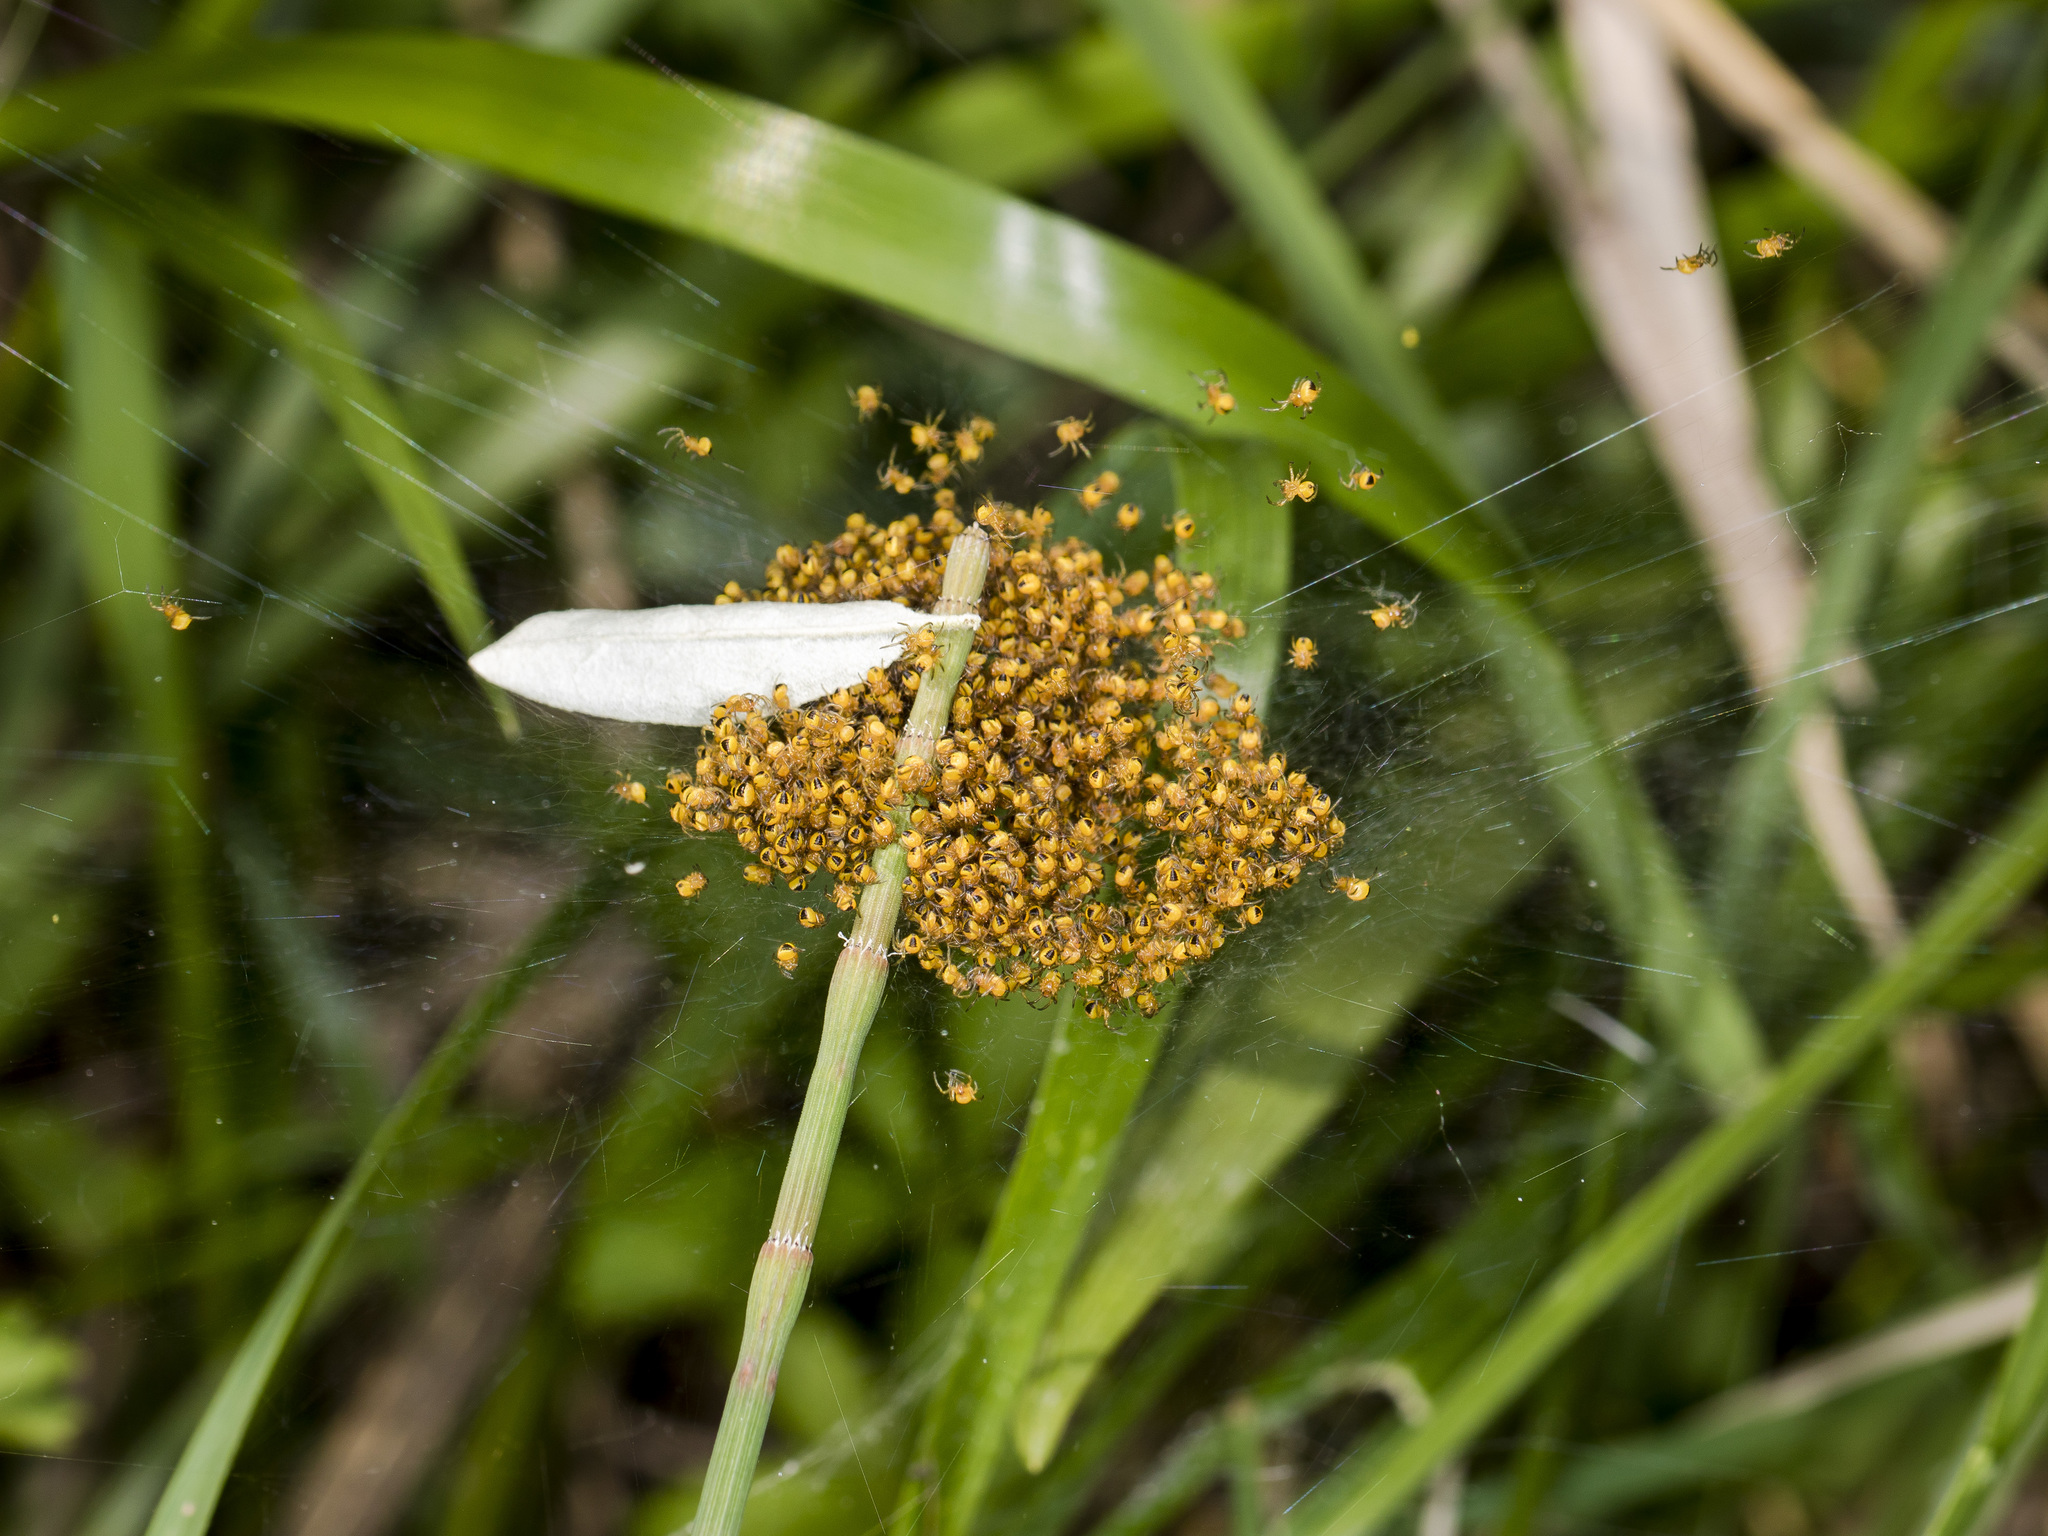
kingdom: Animalia
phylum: Arthropoda
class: Arachnida
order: Araneae
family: Araneidae
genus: Araneus
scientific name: Araneus diadematus
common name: Cross orbweaver
